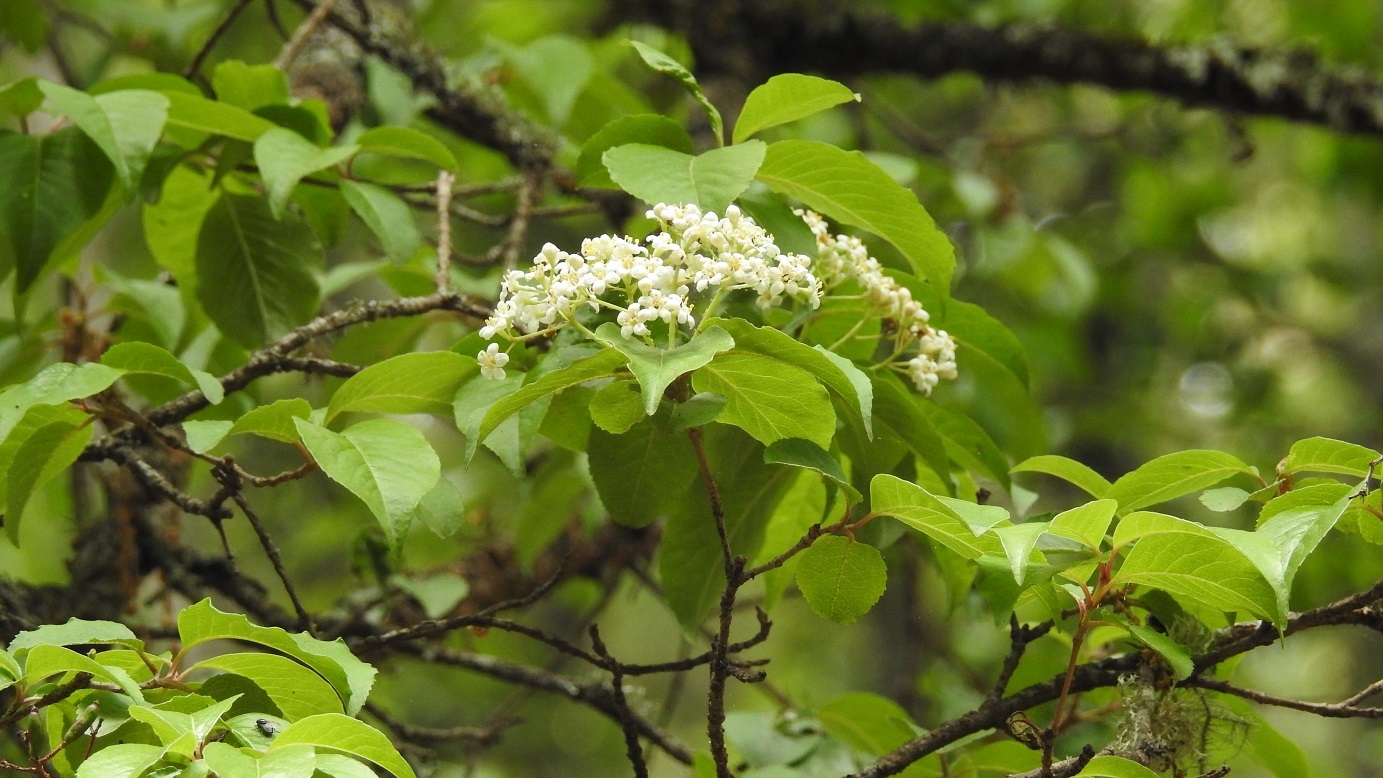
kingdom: Plantae
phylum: Tracheophyta
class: Magnoliopsida
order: Dipsacales
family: Viburnaceae
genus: Viburnum
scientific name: Viburnum elatum
